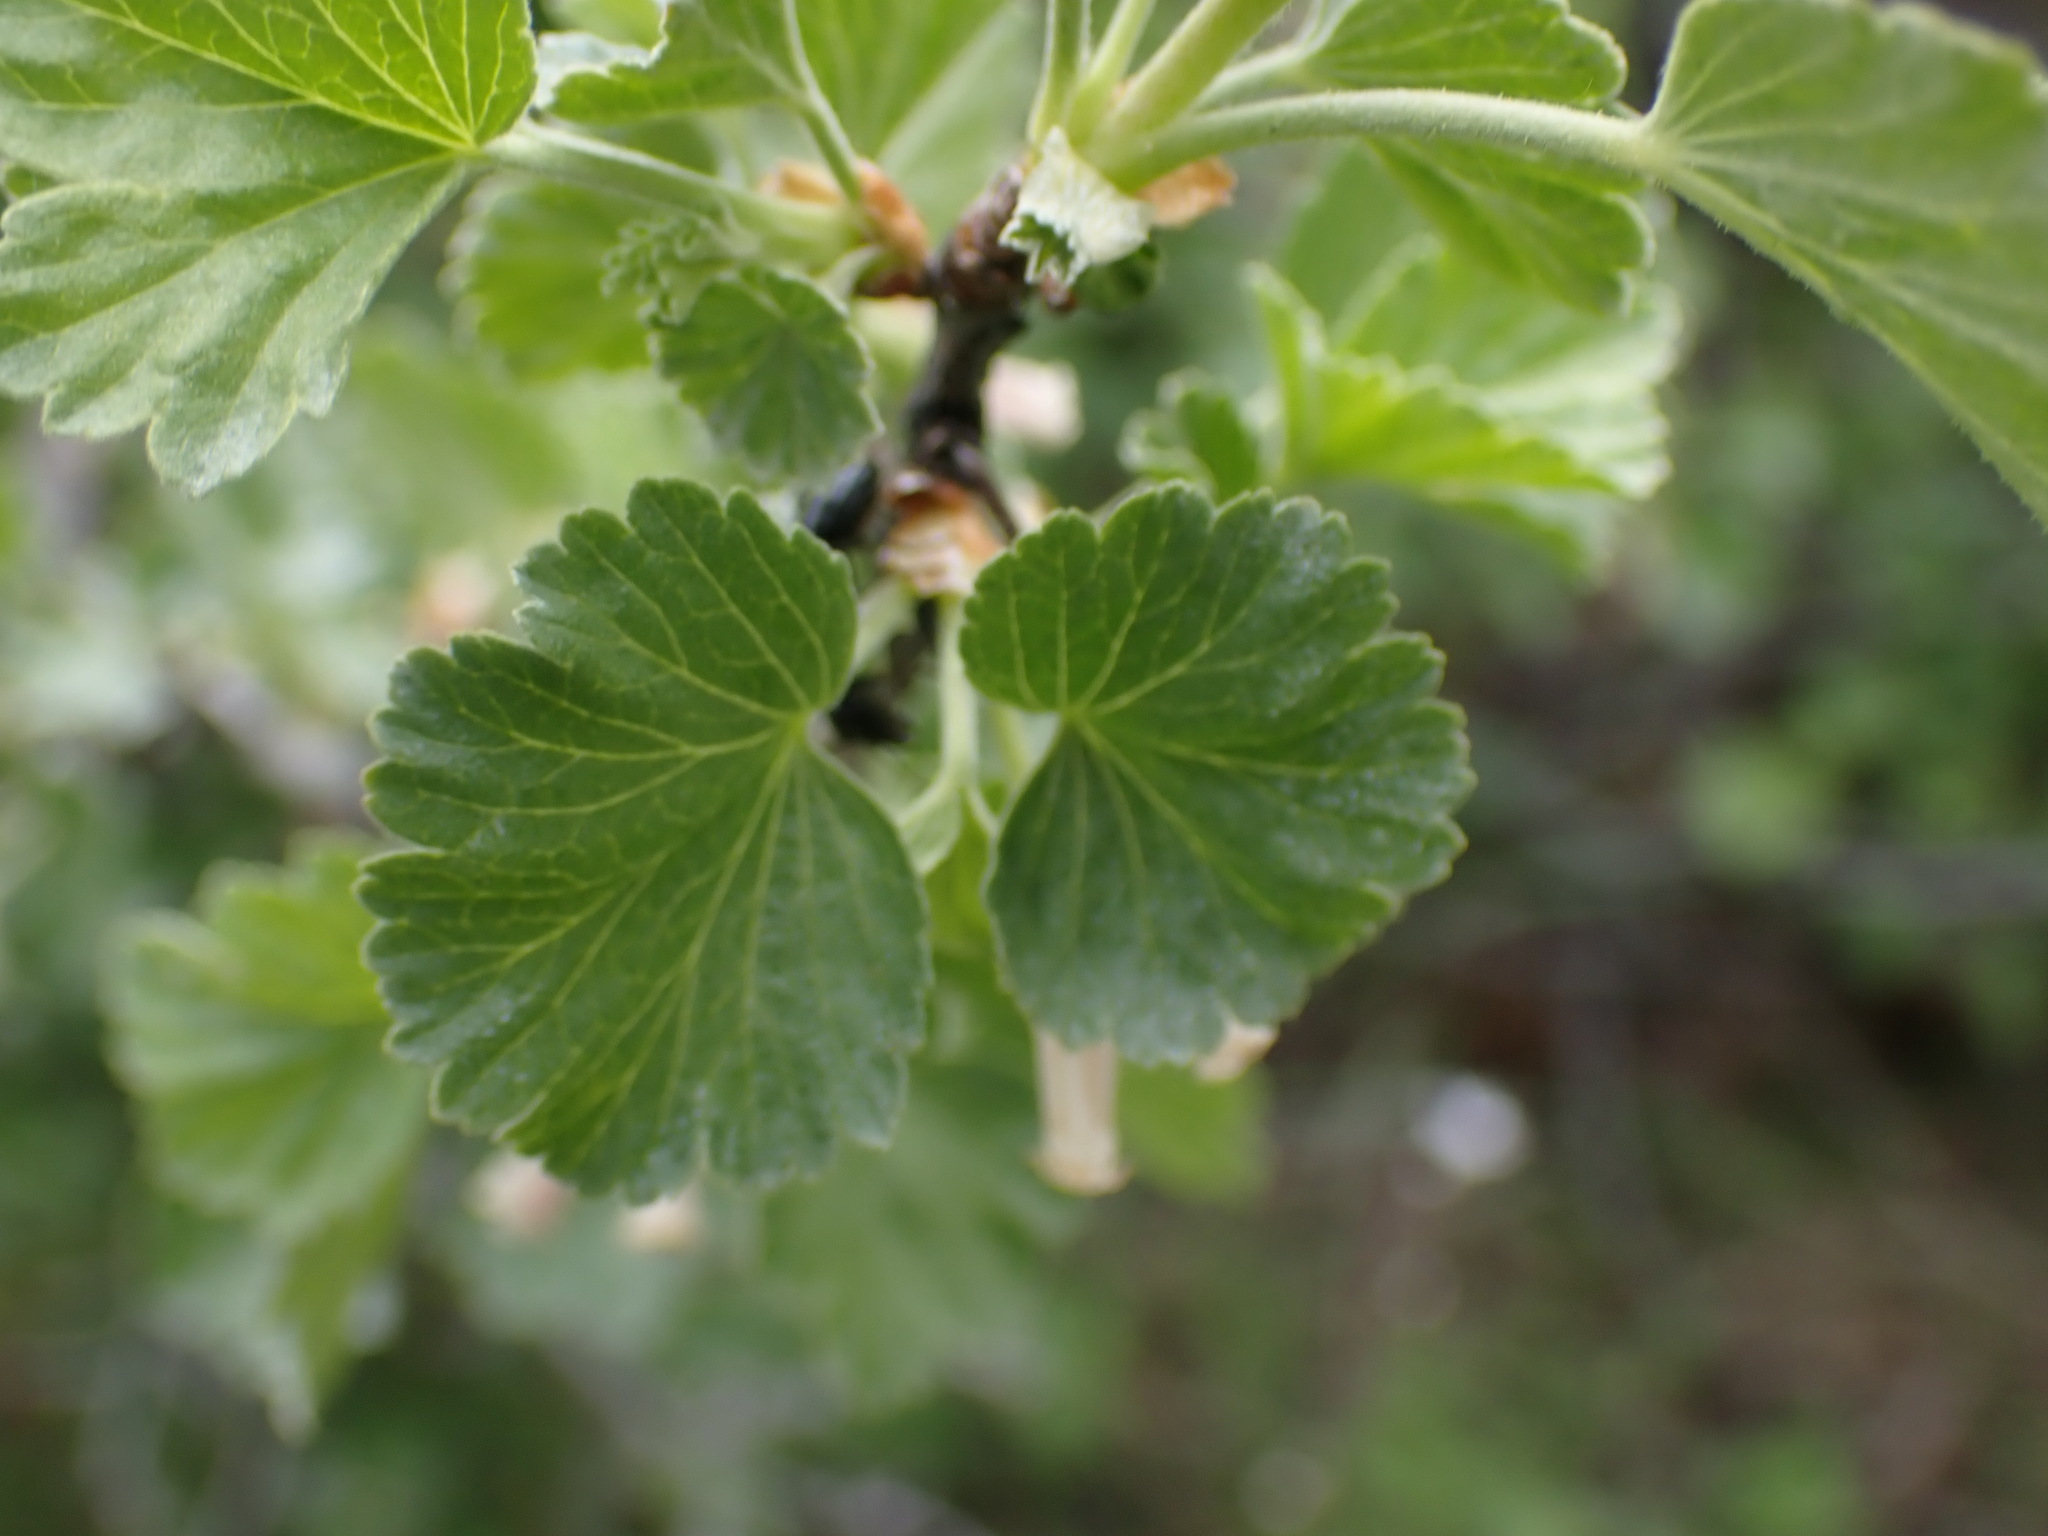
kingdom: Plantae
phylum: Tracheophyta
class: Magnoliopsida
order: Saxifragales
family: Grossulariaceae
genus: Ribes
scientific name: Ribes cereum
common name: Wax currant
